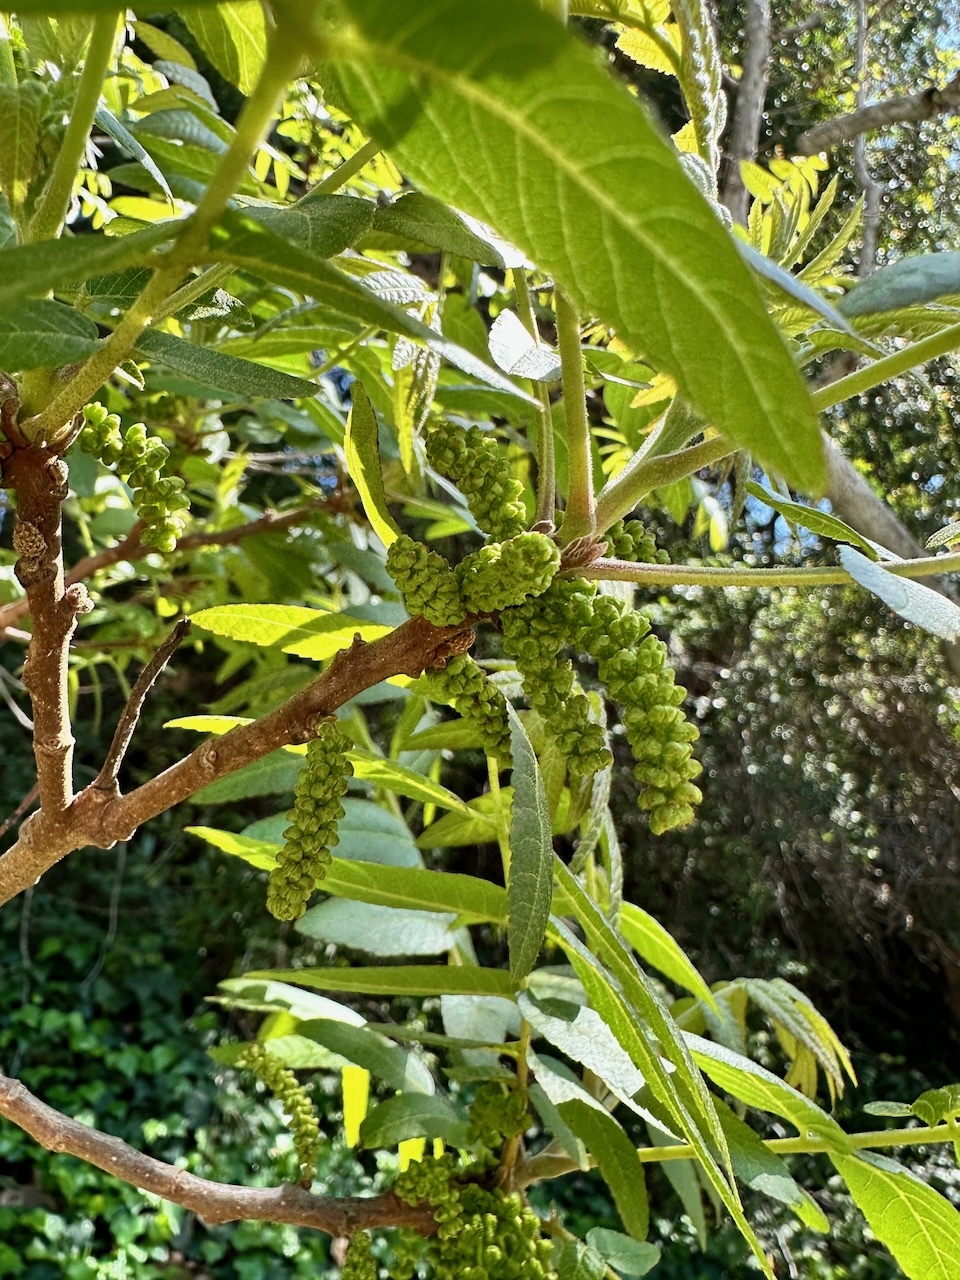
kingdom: Plantae
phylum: Tracheophyta
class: Magnoliopsida
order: Fagales
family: Juglandaceae
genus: Juglans
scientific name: Juglans californica
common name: Southern california black walnut
